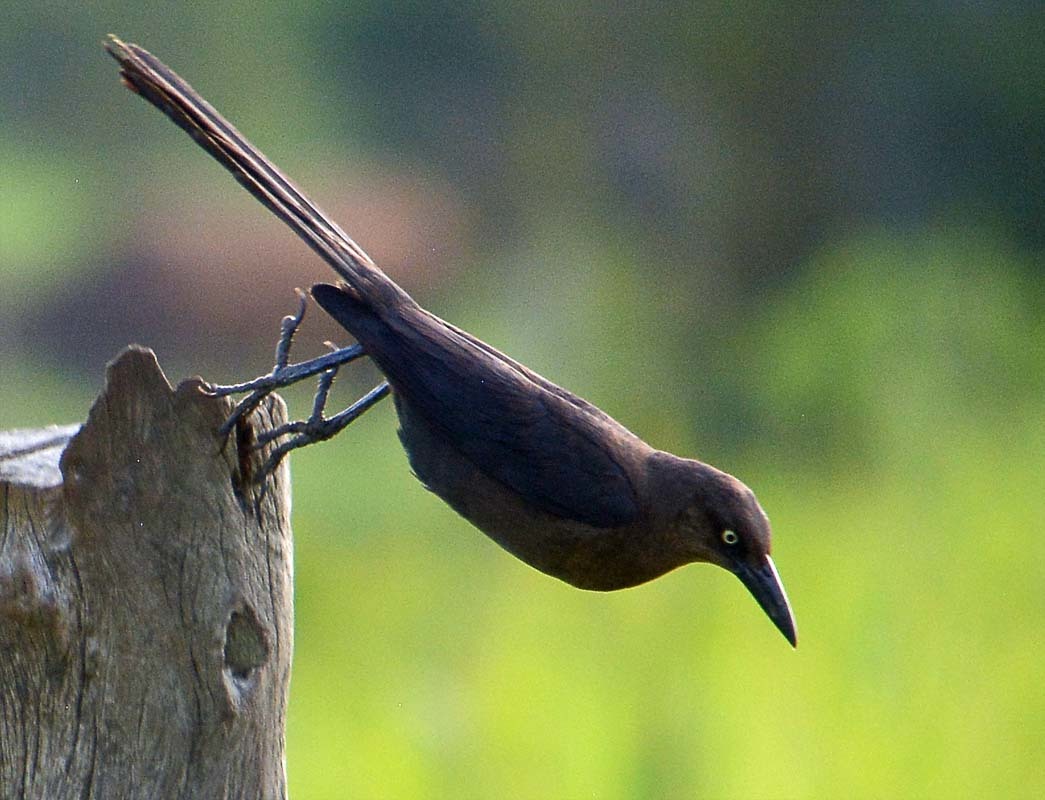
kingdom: Animalia
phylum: Chordata
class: Aves
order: Passeriformes
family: Icteridae
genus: Quiscalus
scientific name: Quiscalus mexicanus
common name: Great-tailed grackle
